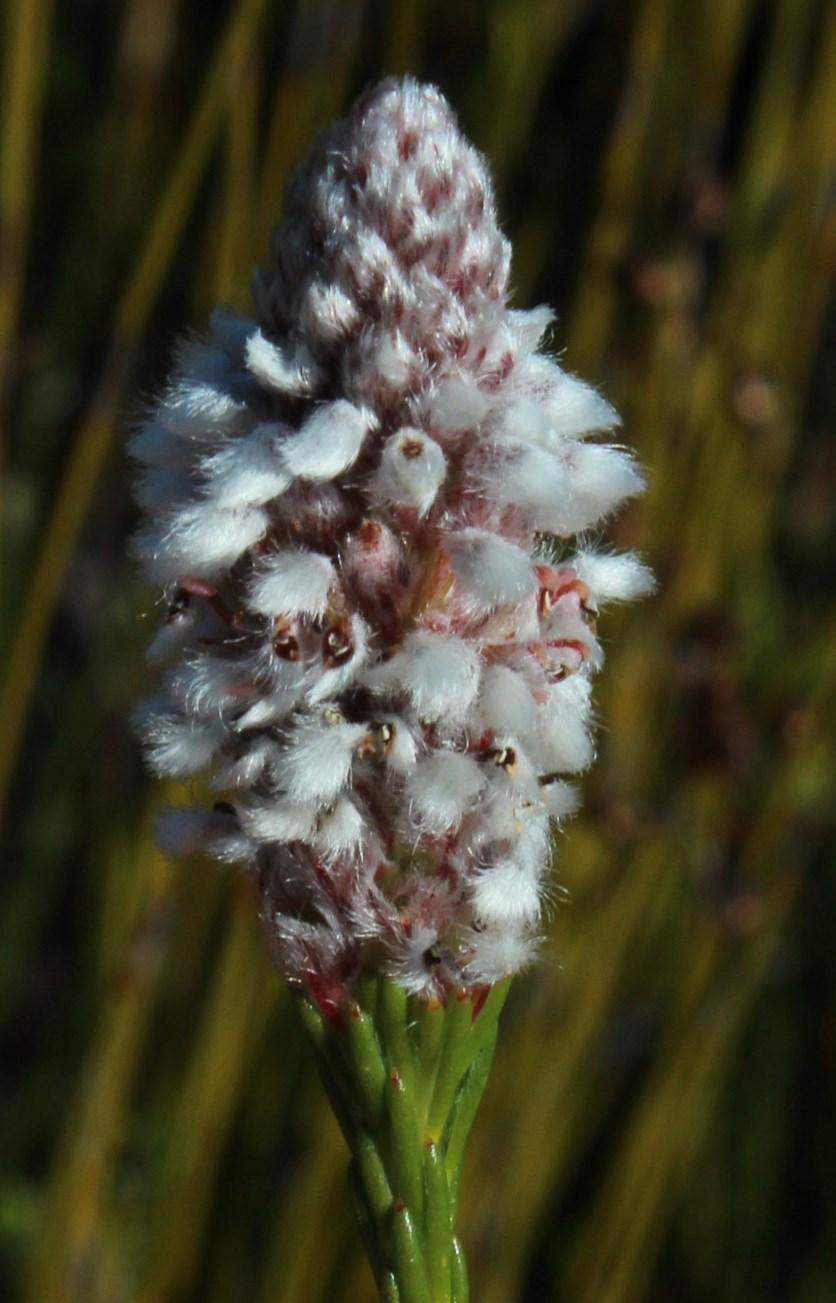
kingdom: Plantae
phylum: Tracheophyta
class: Magnoliopsida
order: Proteales
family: Proteaceae
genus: Spatalla
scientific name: Spatalla ericoides
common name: Erica-leaf spoon
